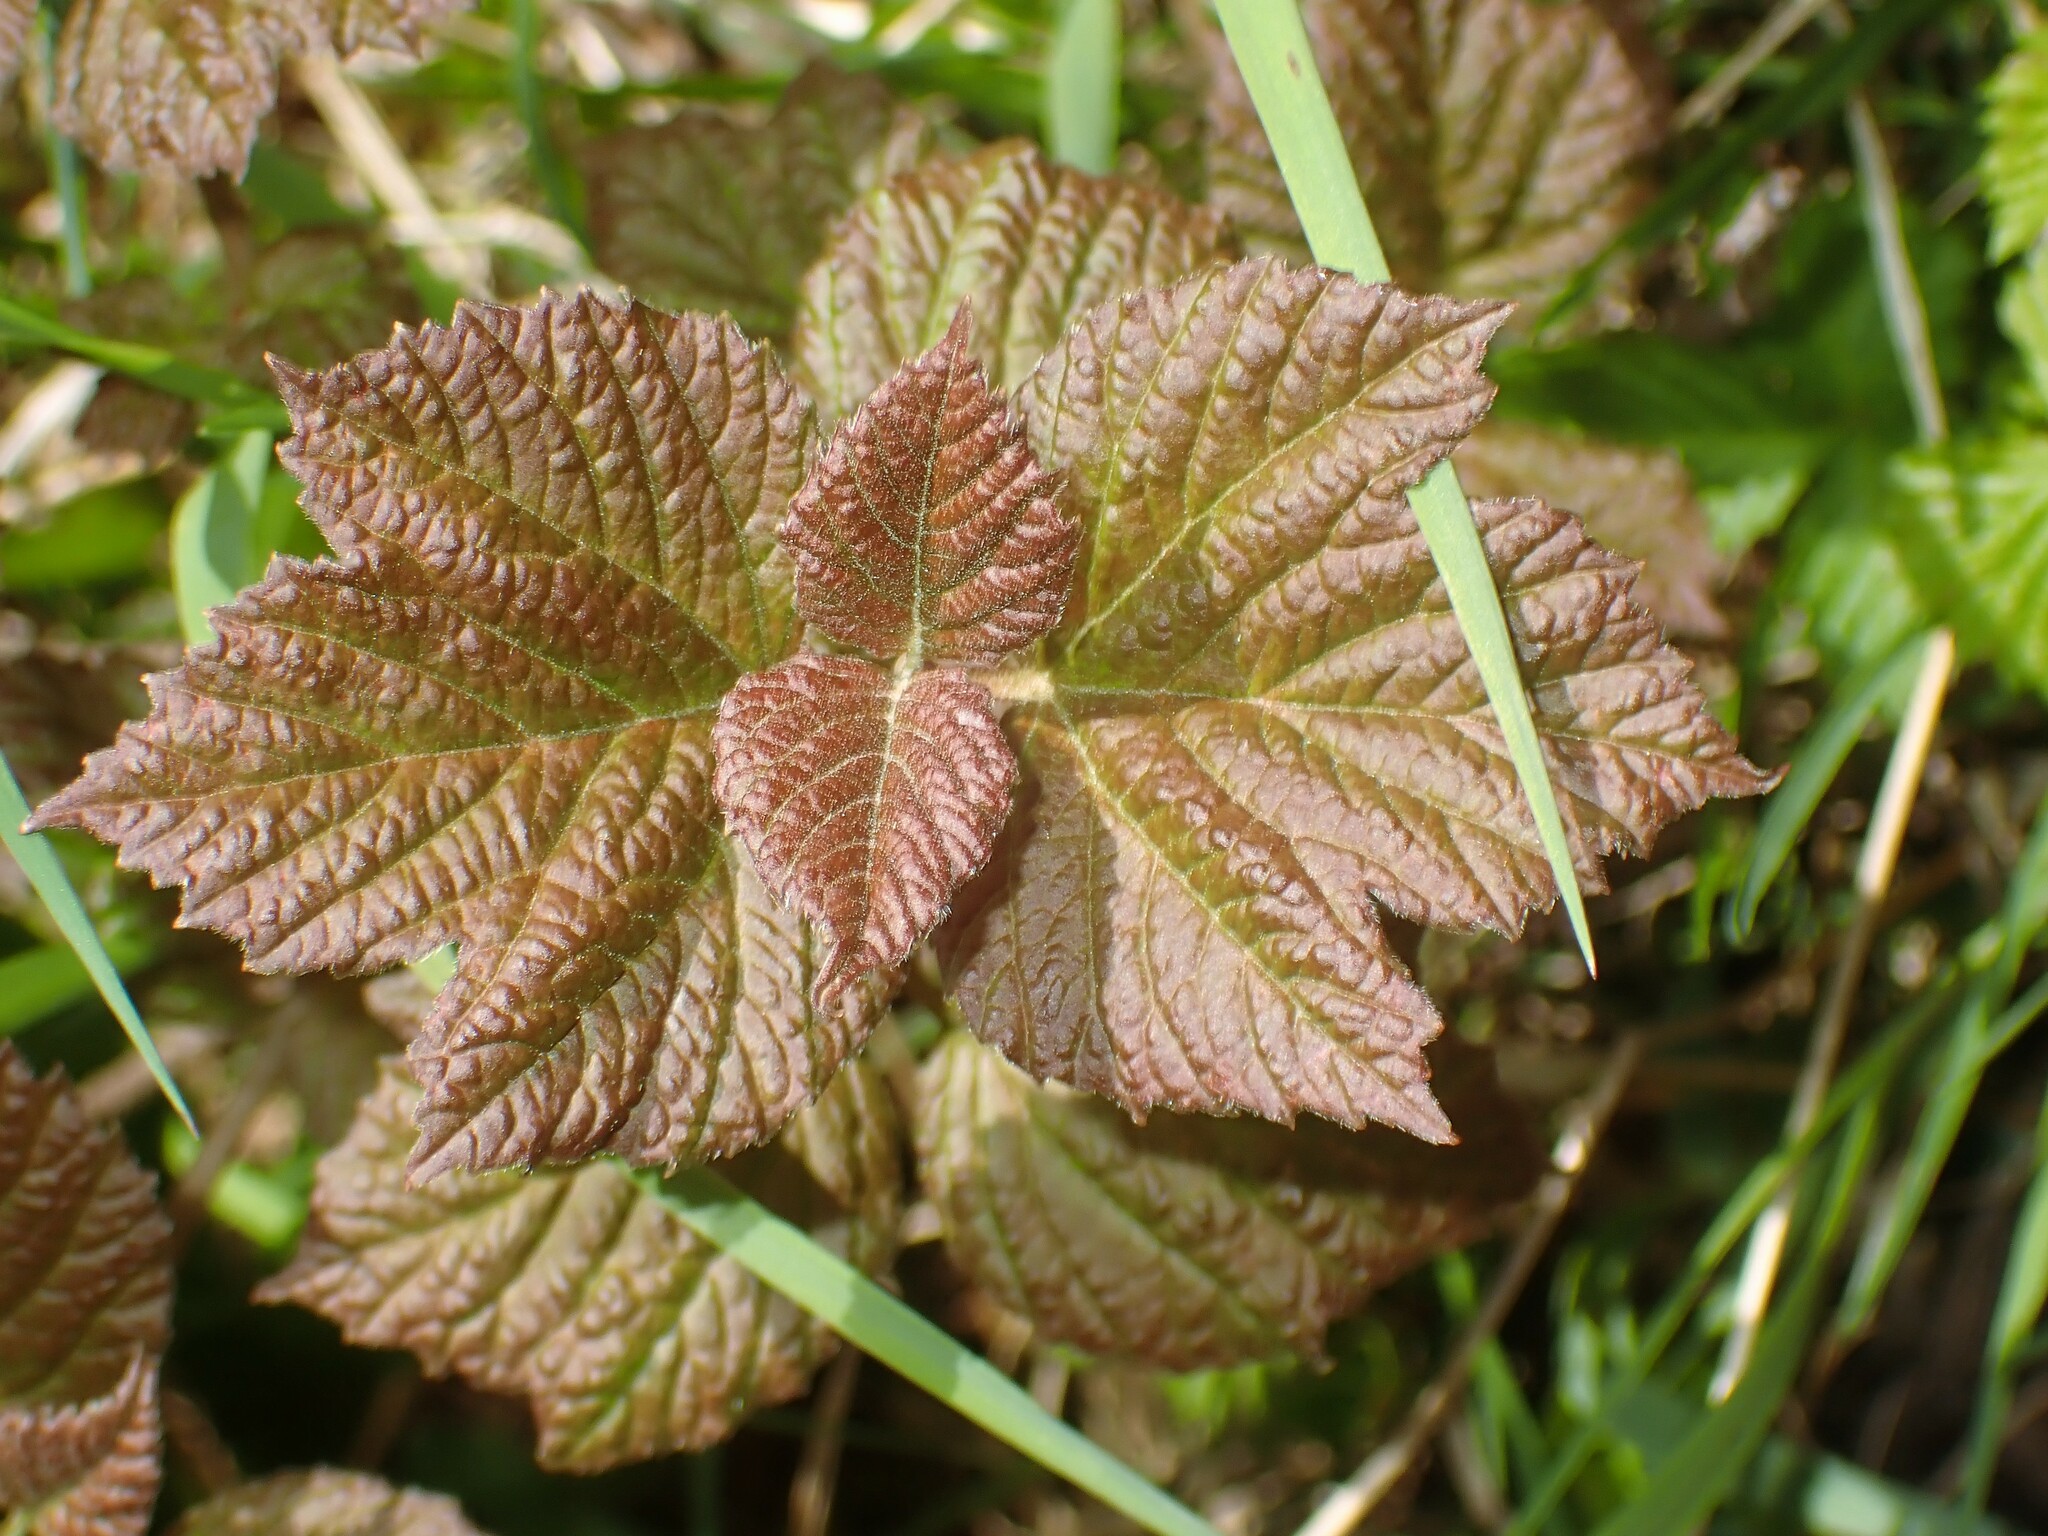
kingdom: Plantae
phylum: Tracheophyta
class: Magnoliopsida
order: Dipsacales
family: Viburnaceae
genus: Viburnum
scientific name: Viburnum edule
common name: Mooseberry
